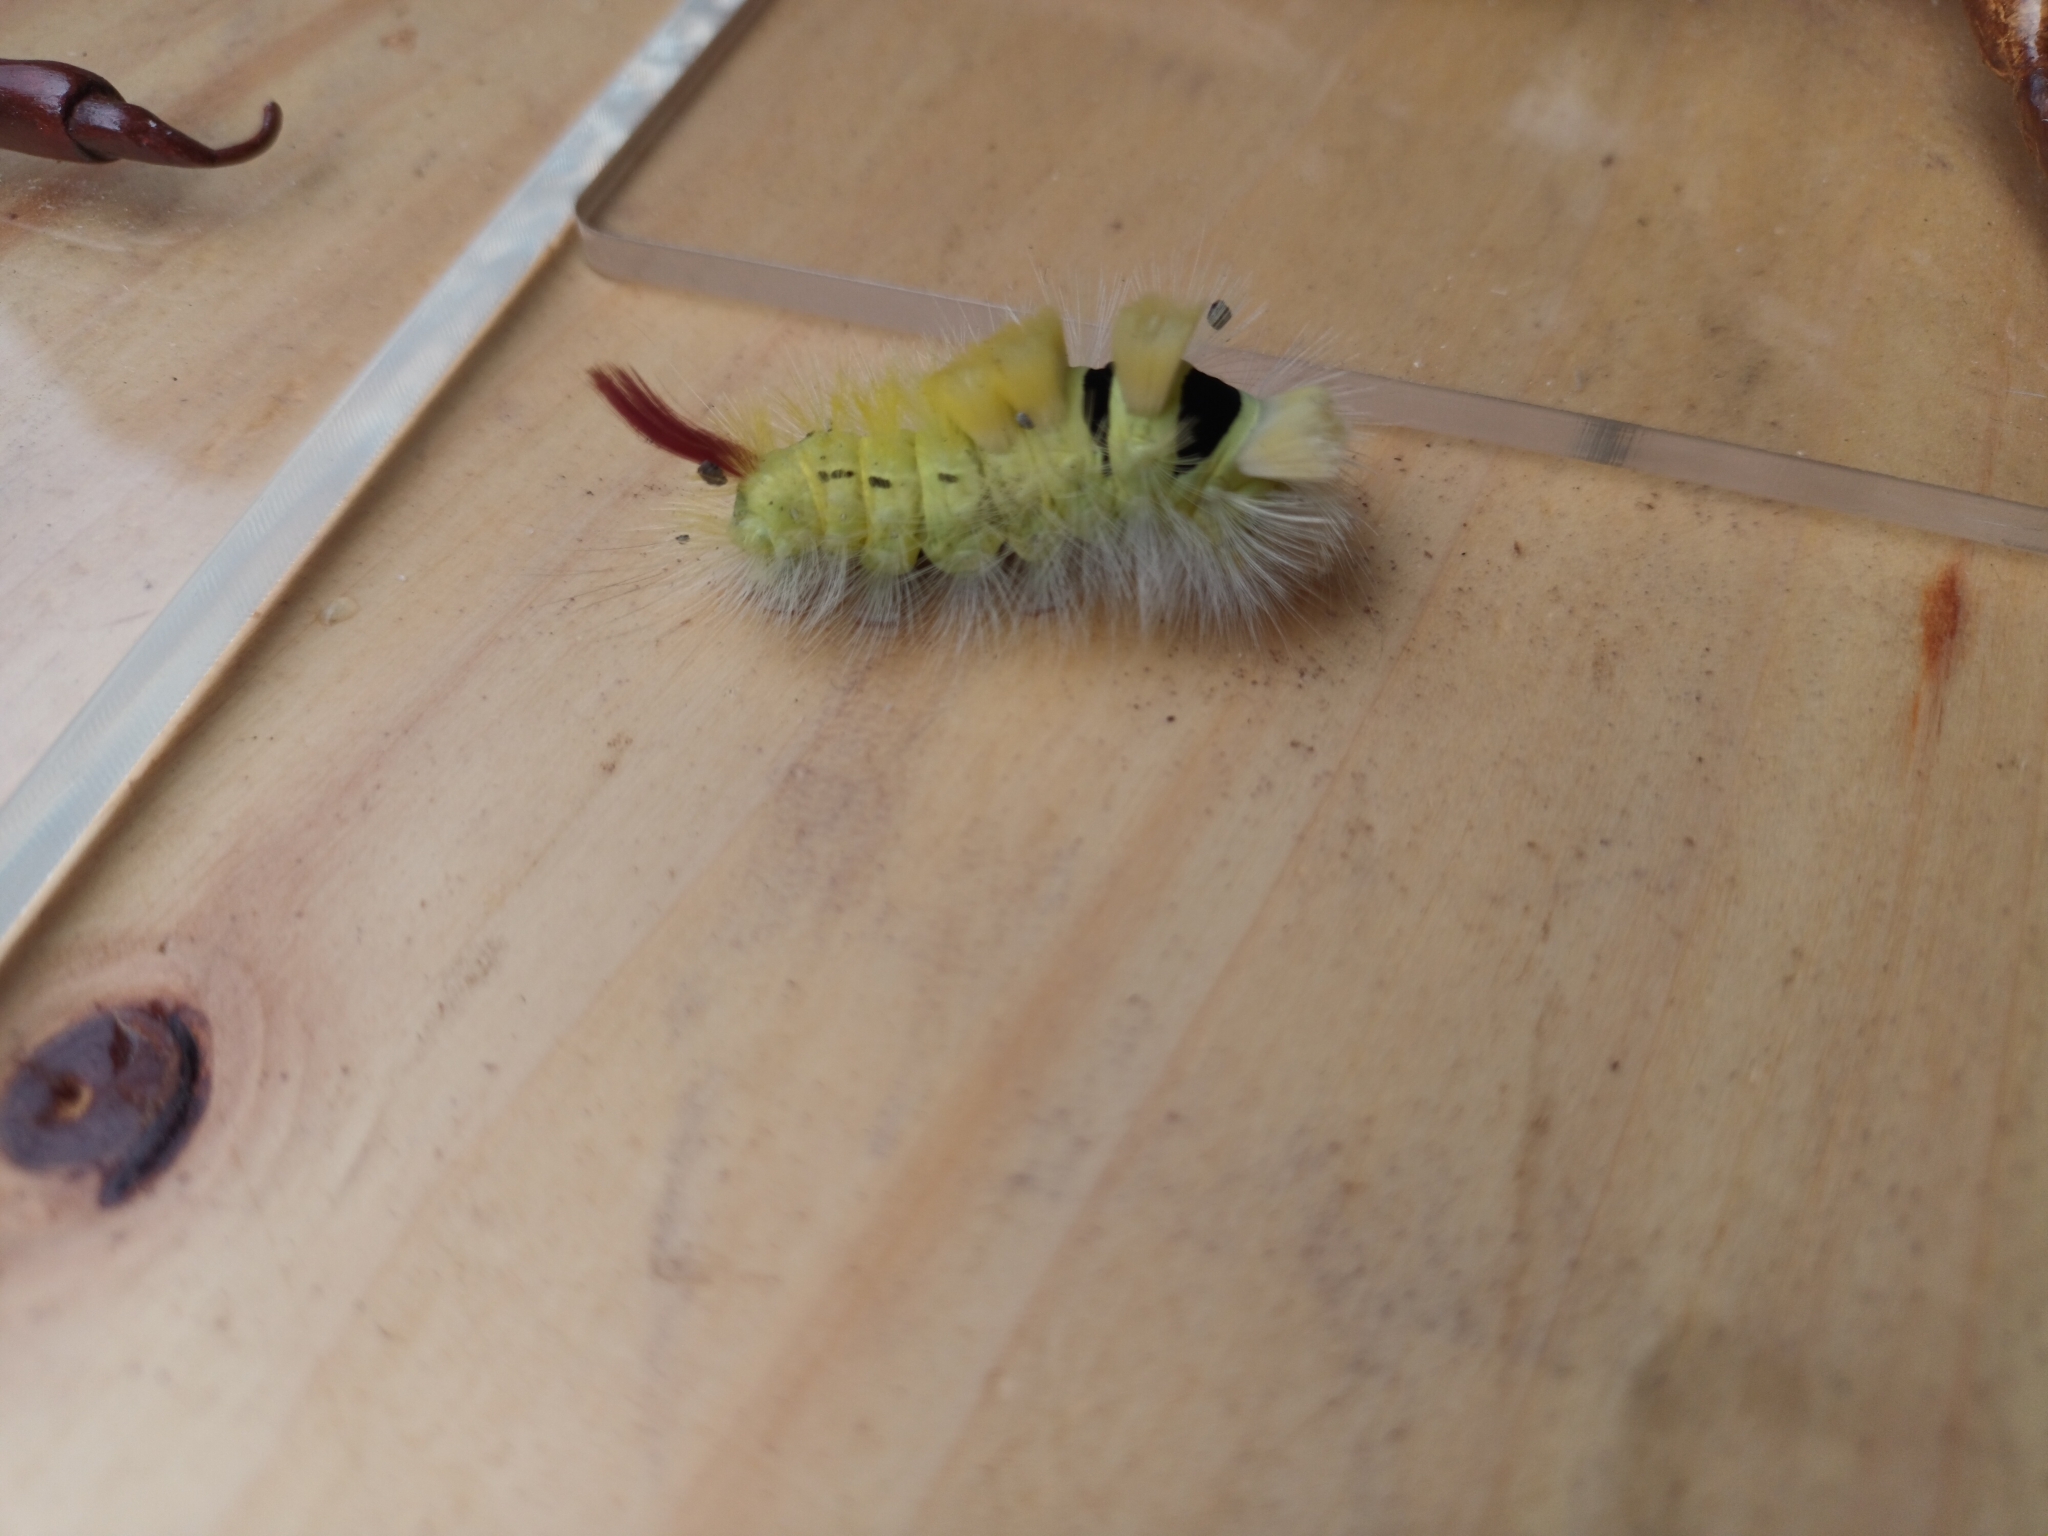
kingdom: Animalia
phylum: Arthropoda
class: Insecta
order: Lepidoptera
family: Erebidae
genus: Calliteara
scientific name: Calliteara pudibunda
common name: Pale tussock
